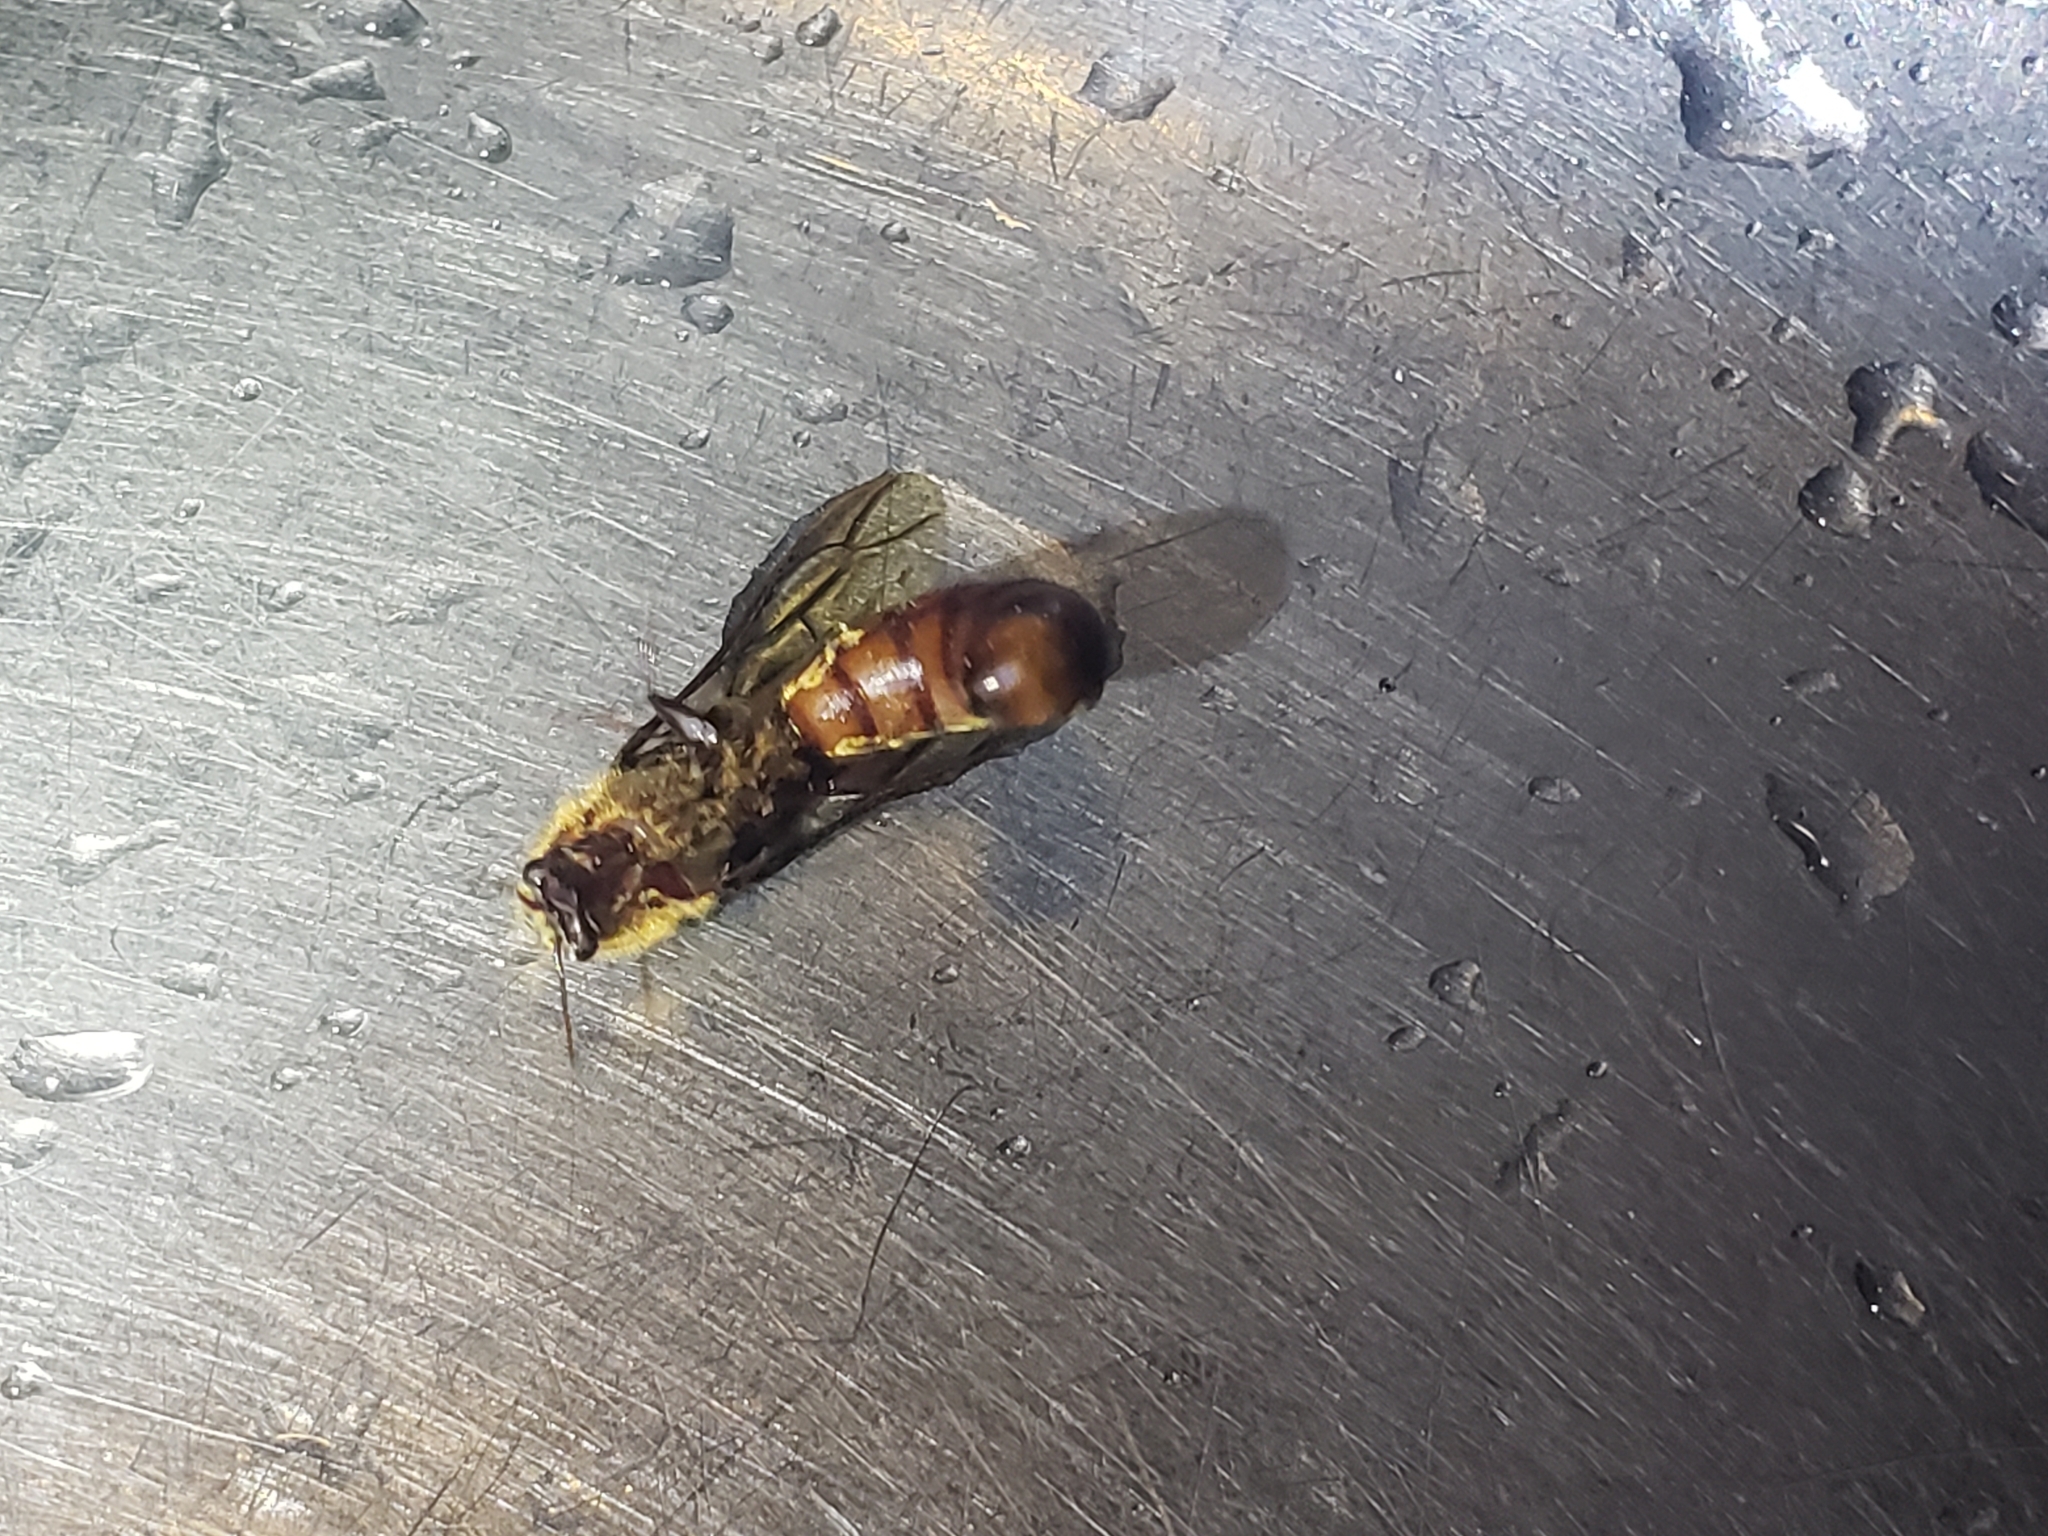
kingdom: Animalia
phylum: Arthropoda
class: Insecta
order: Hymenoptera
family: Formicidae
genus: Dorylus
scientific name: Dorylus helvolus
